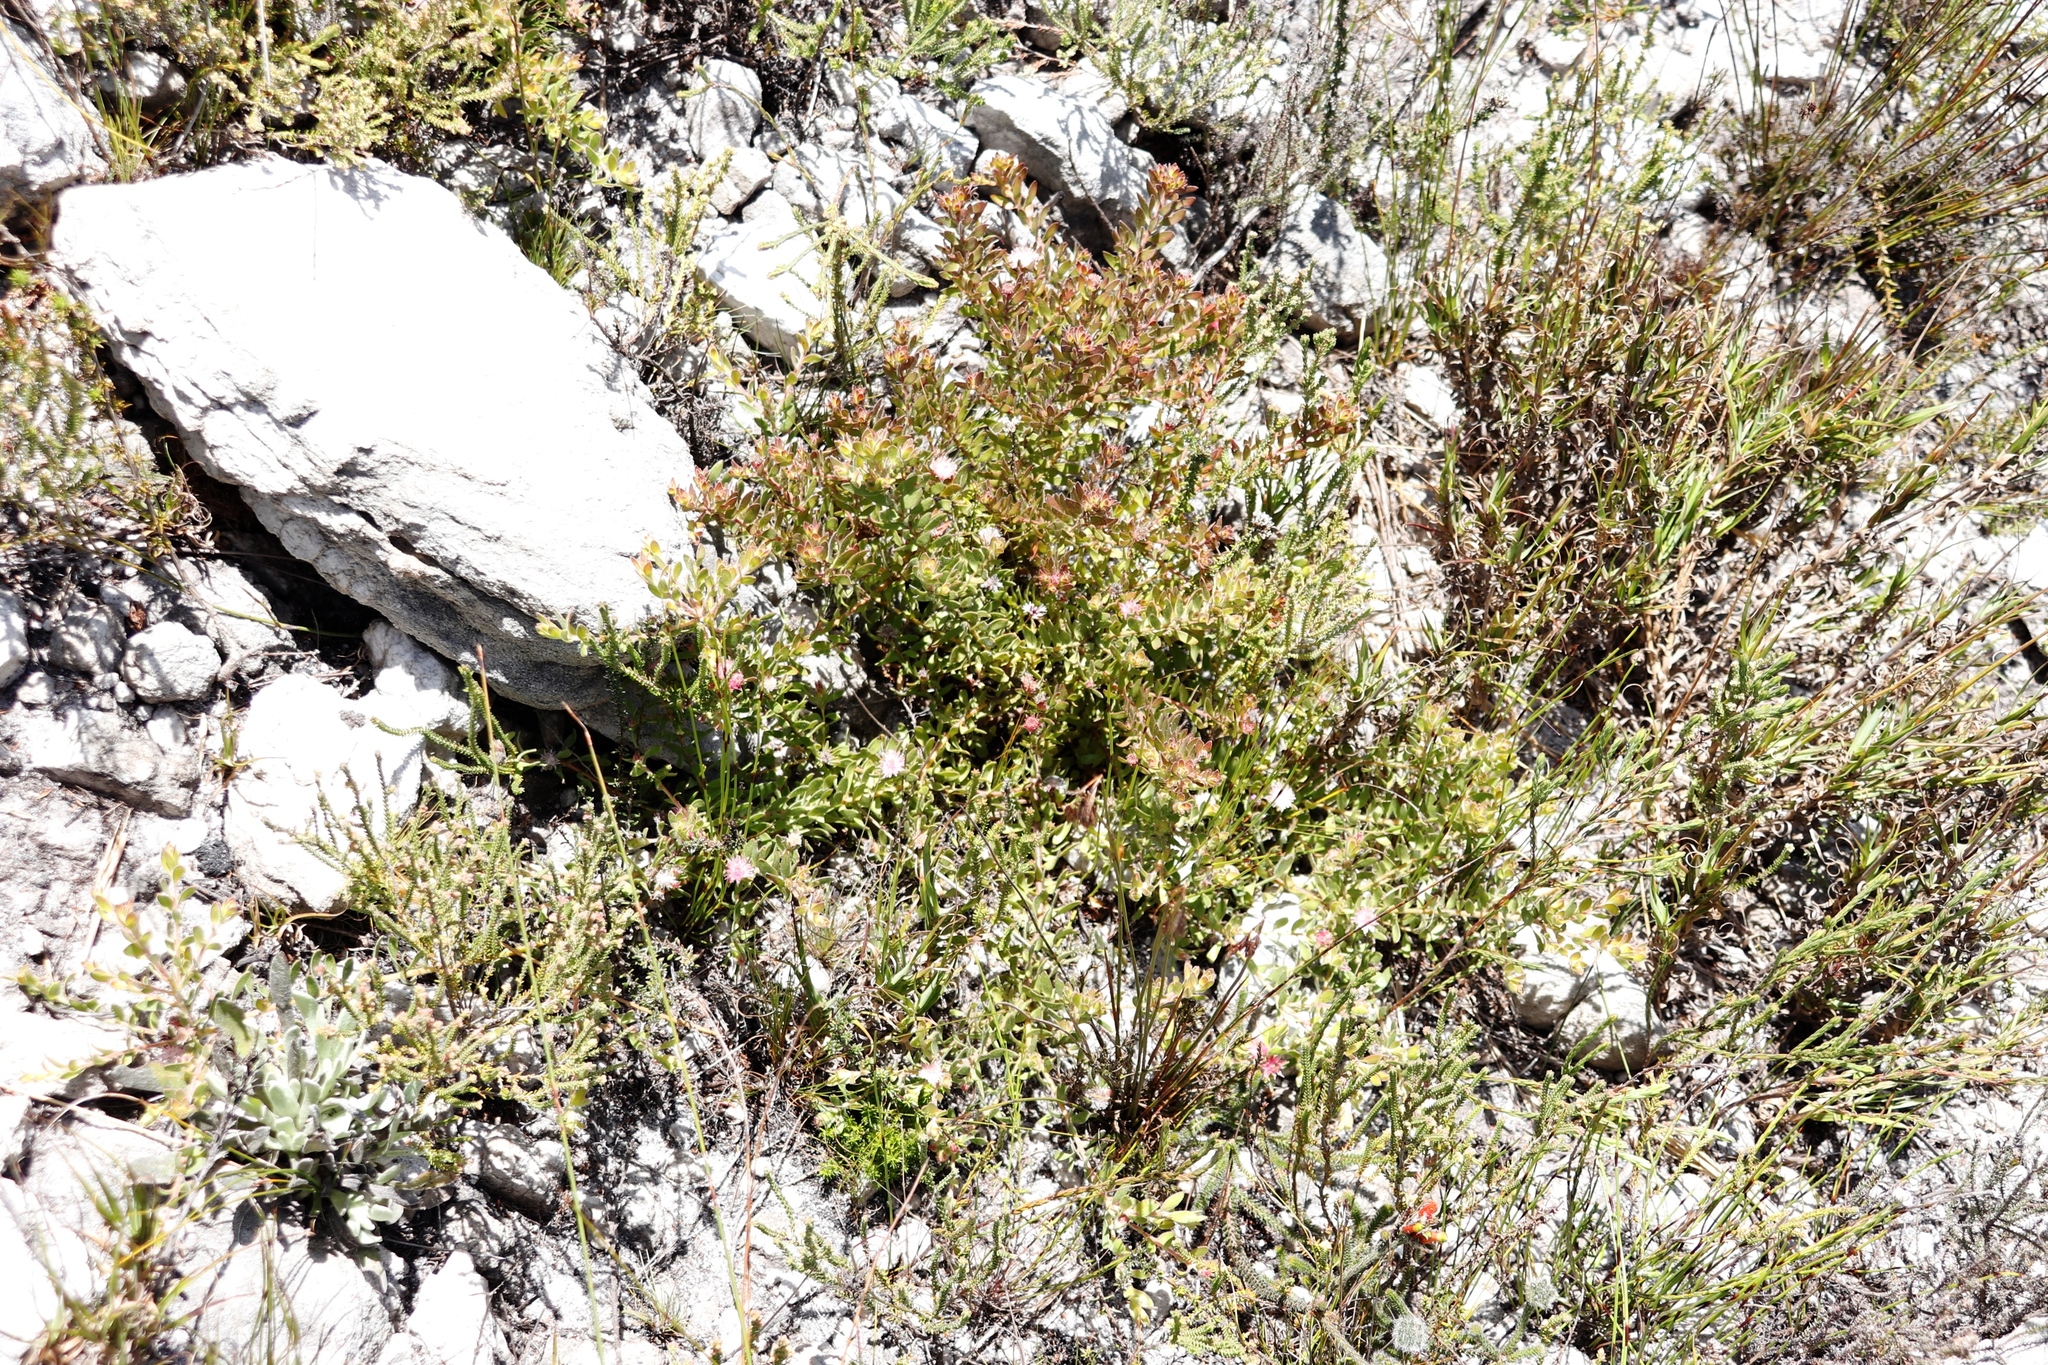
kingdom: Plantae
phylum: Tracheophyta
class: Magnoliopsida
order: Proteales
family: Proteaceae
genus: Diastella
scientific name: Diastella divaricata
